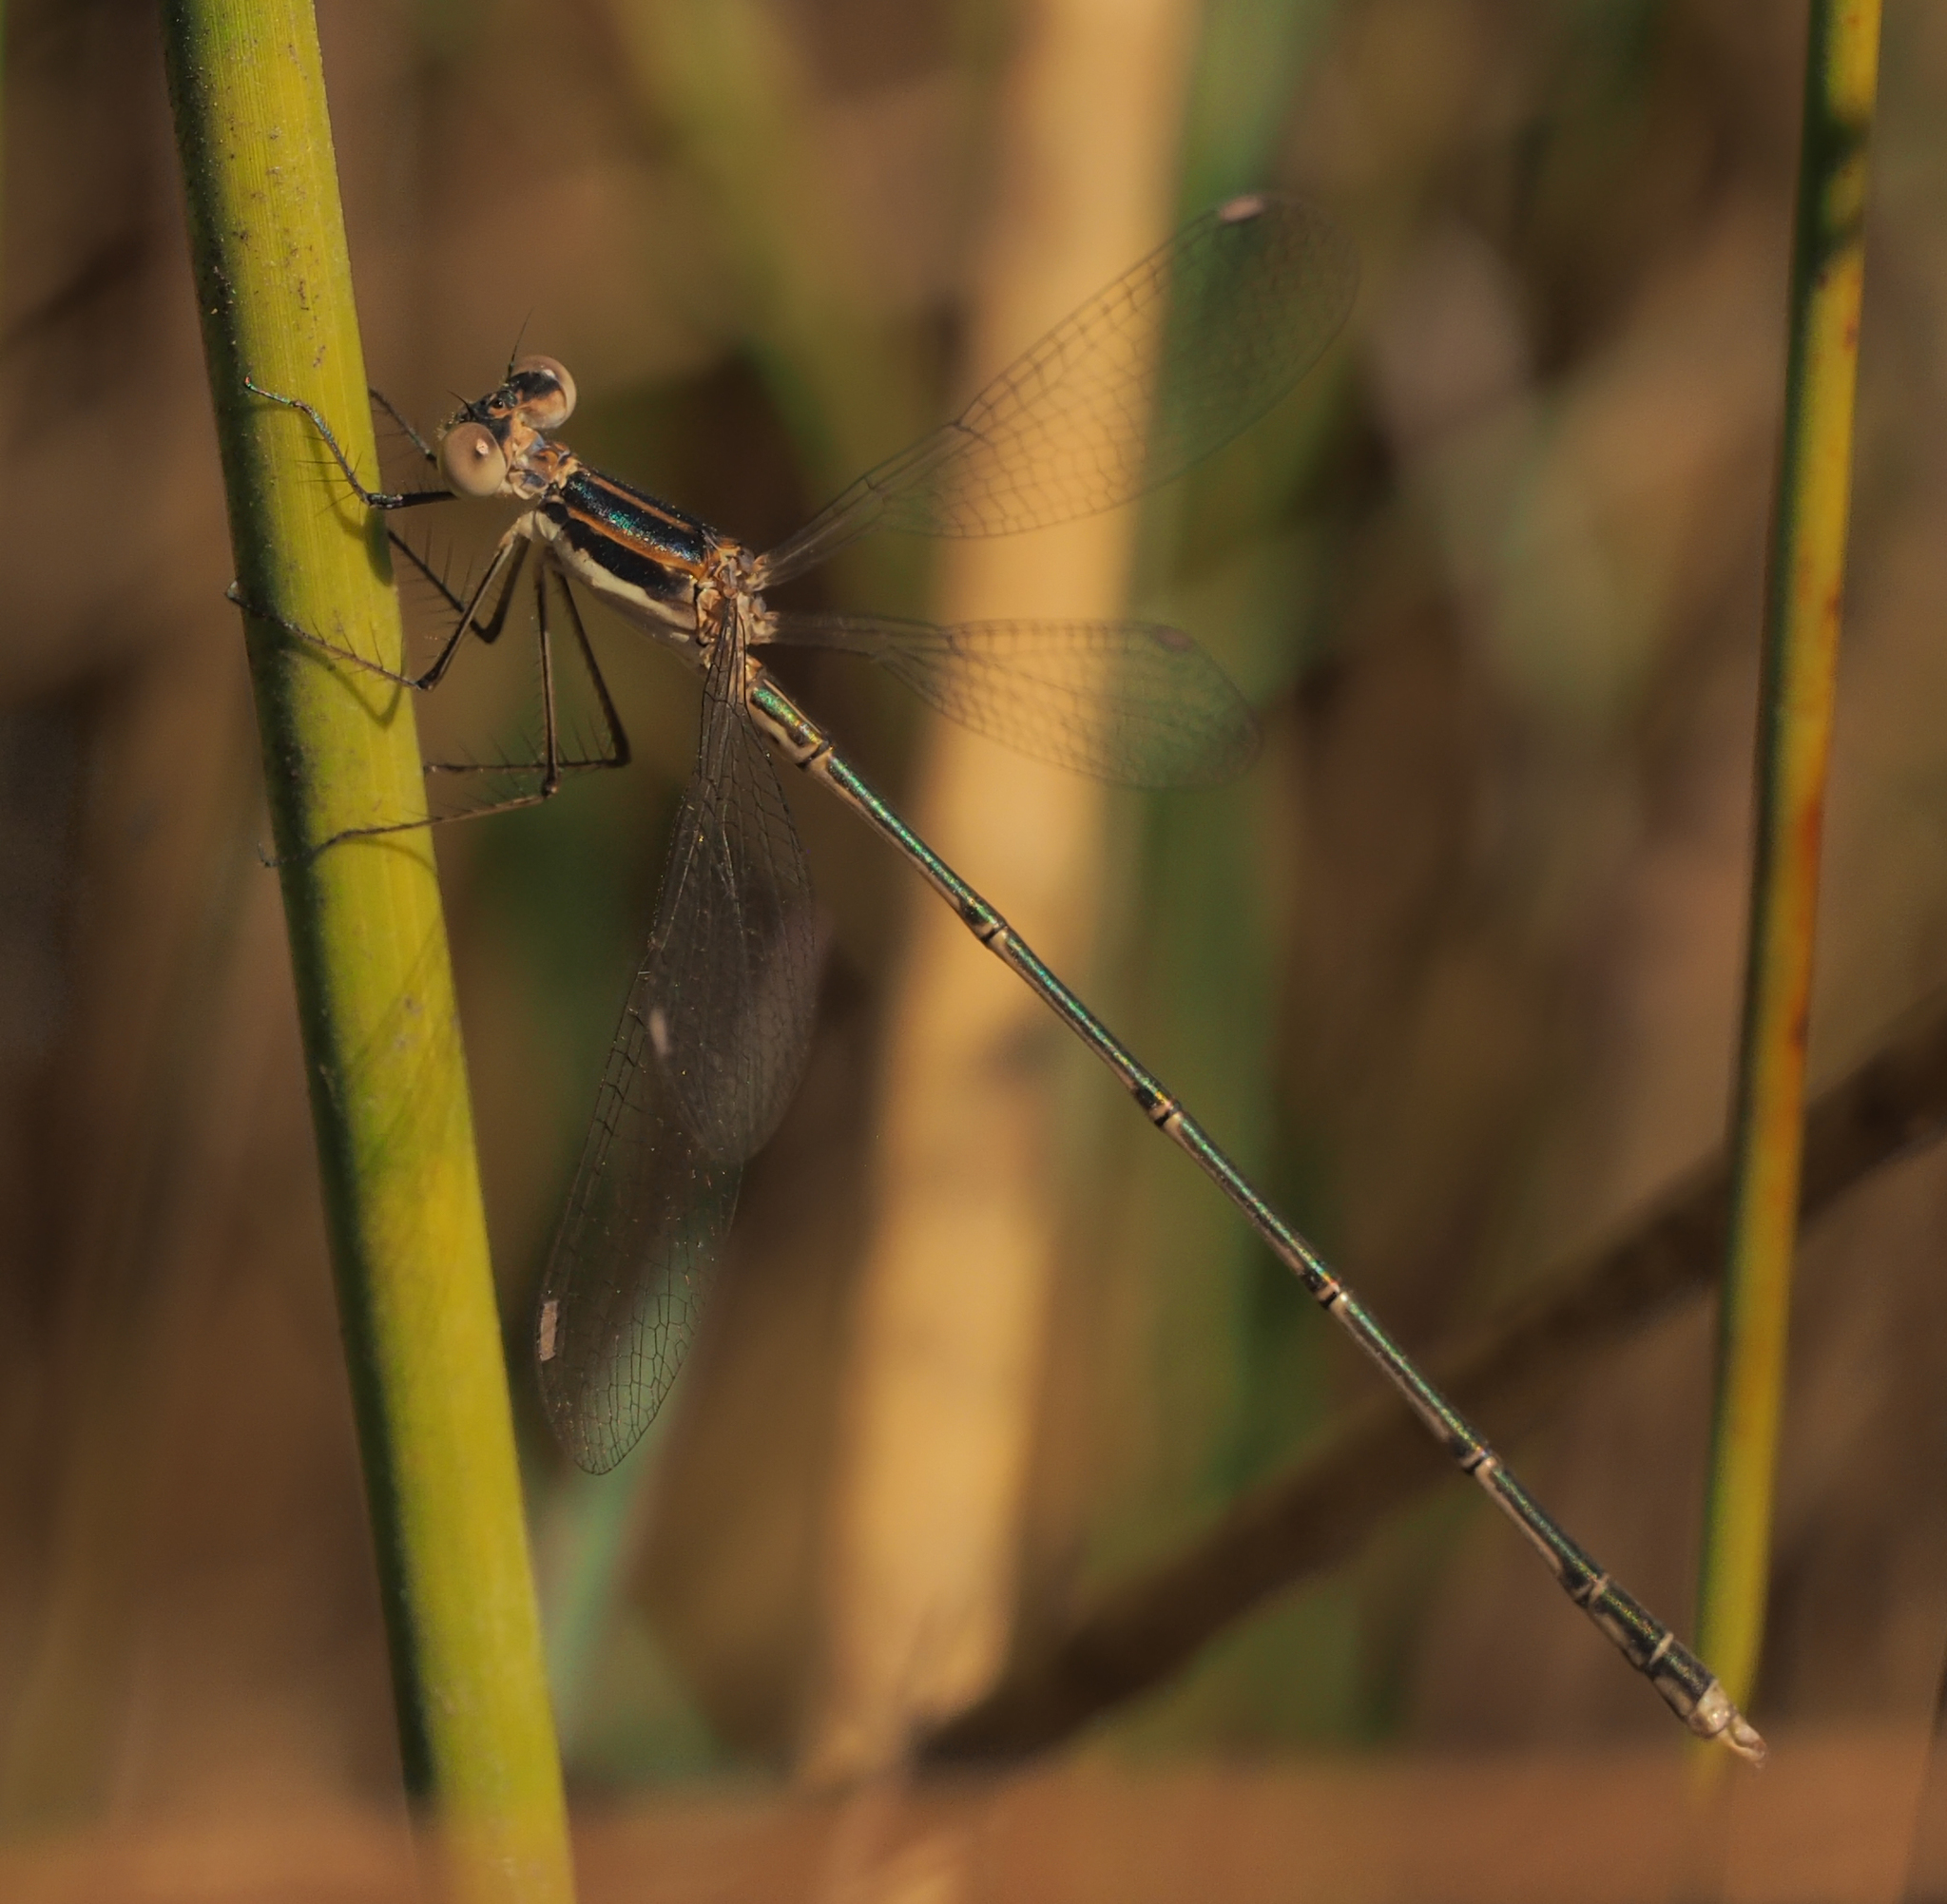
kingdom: Animalia
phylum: Arthropoda
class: Insecta
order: Odonata
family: Lestidae
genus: Lestes
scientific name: Lestes pinheyi
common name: Pinhey's spreadwing
